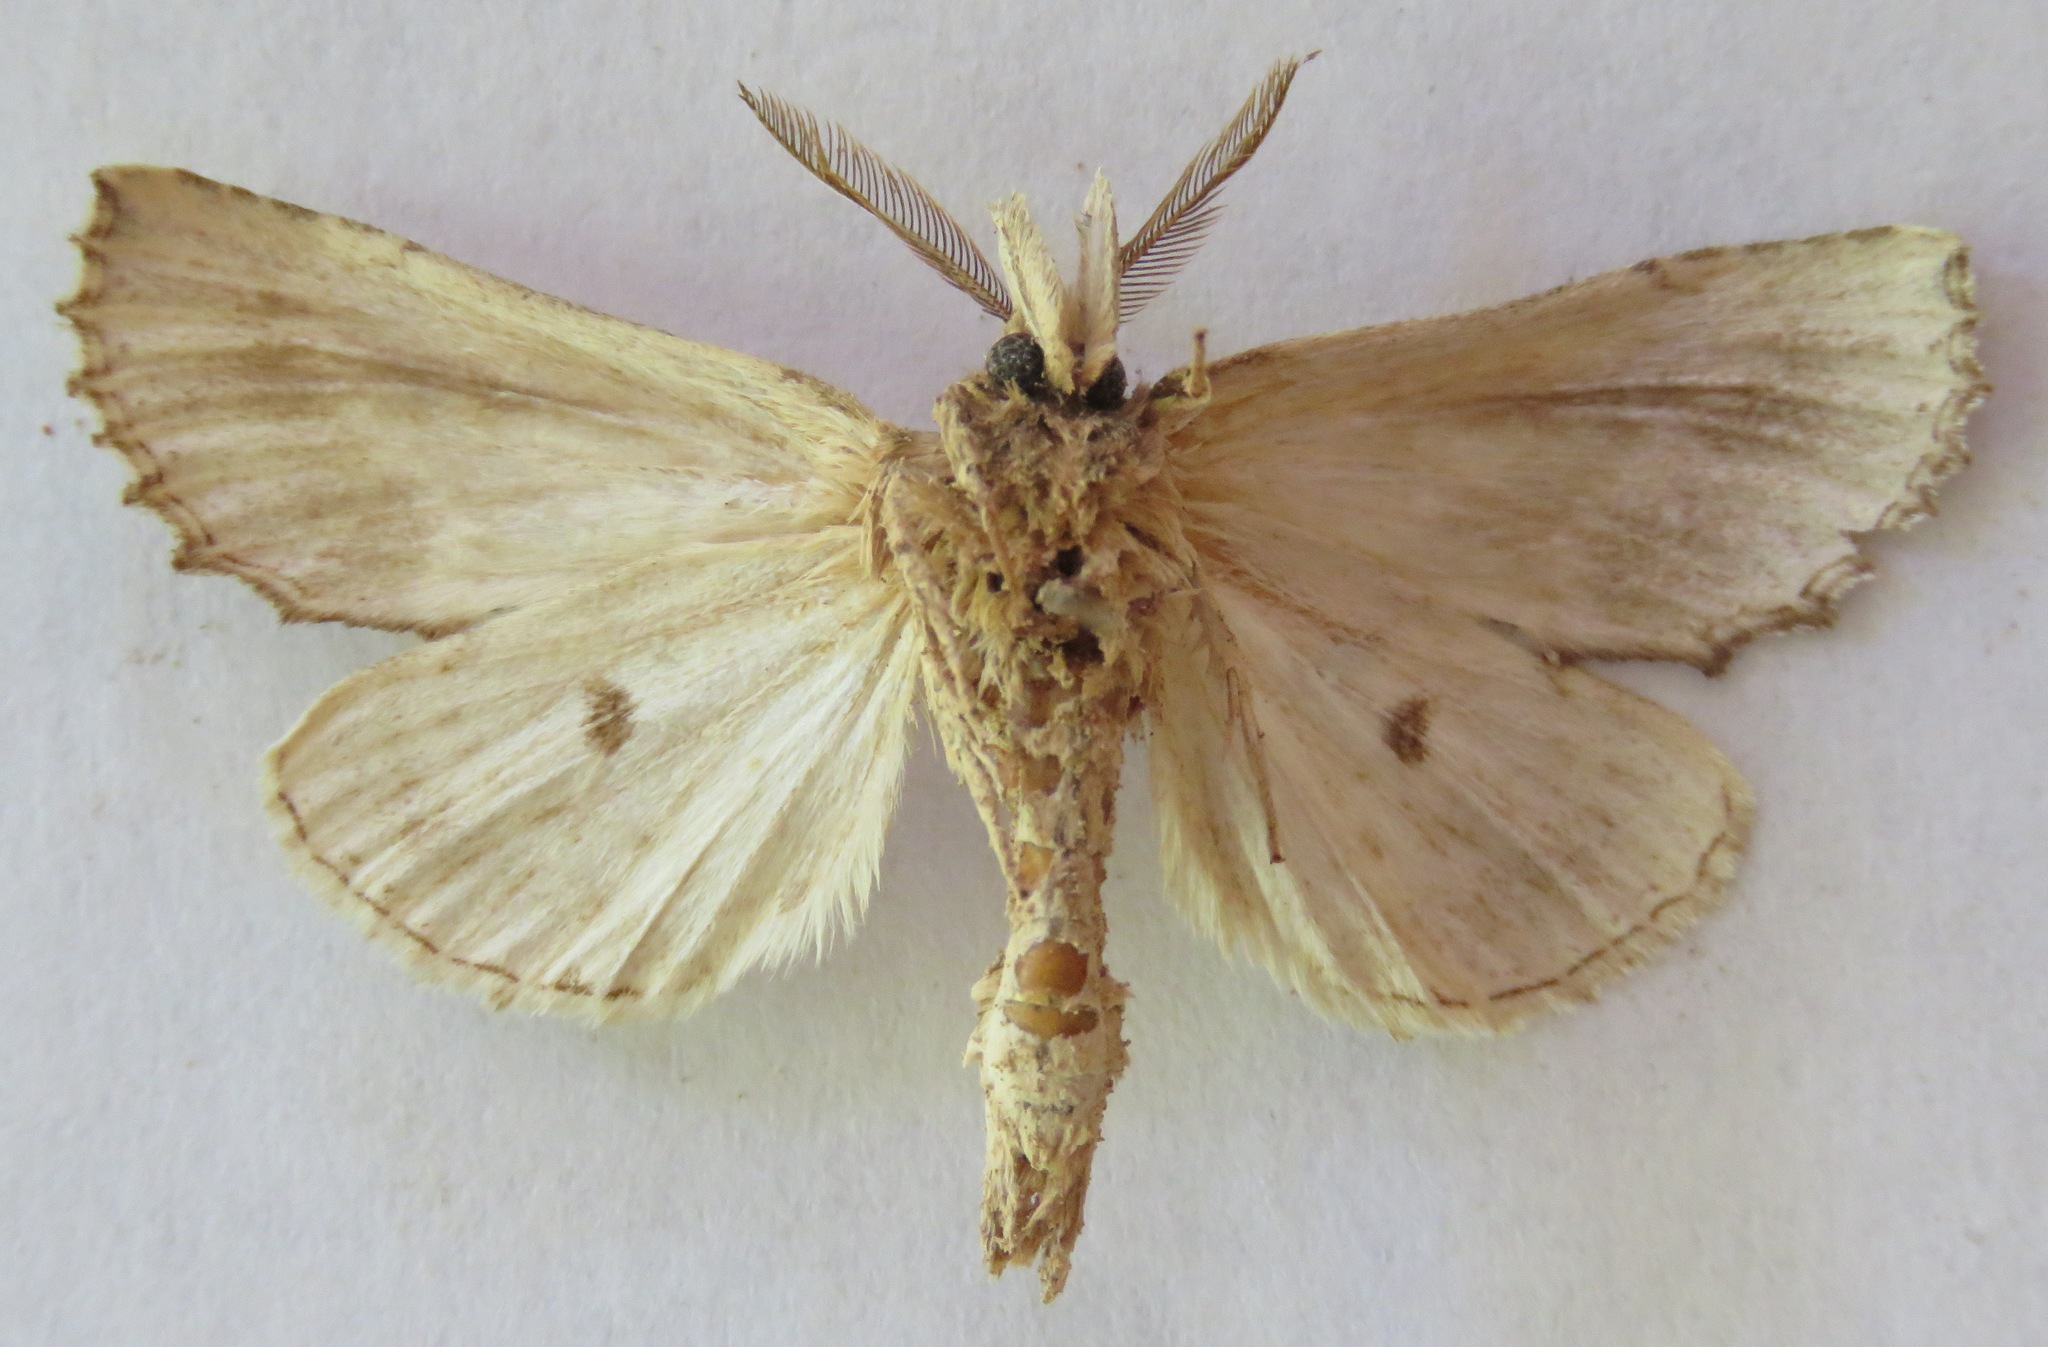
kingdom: Animalia
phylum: Arthropoda
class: Insecta
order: Lepidoptera
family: Notodontidae
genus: Pterostoma
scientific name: Pterostoma palpina
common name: Pale prominent
